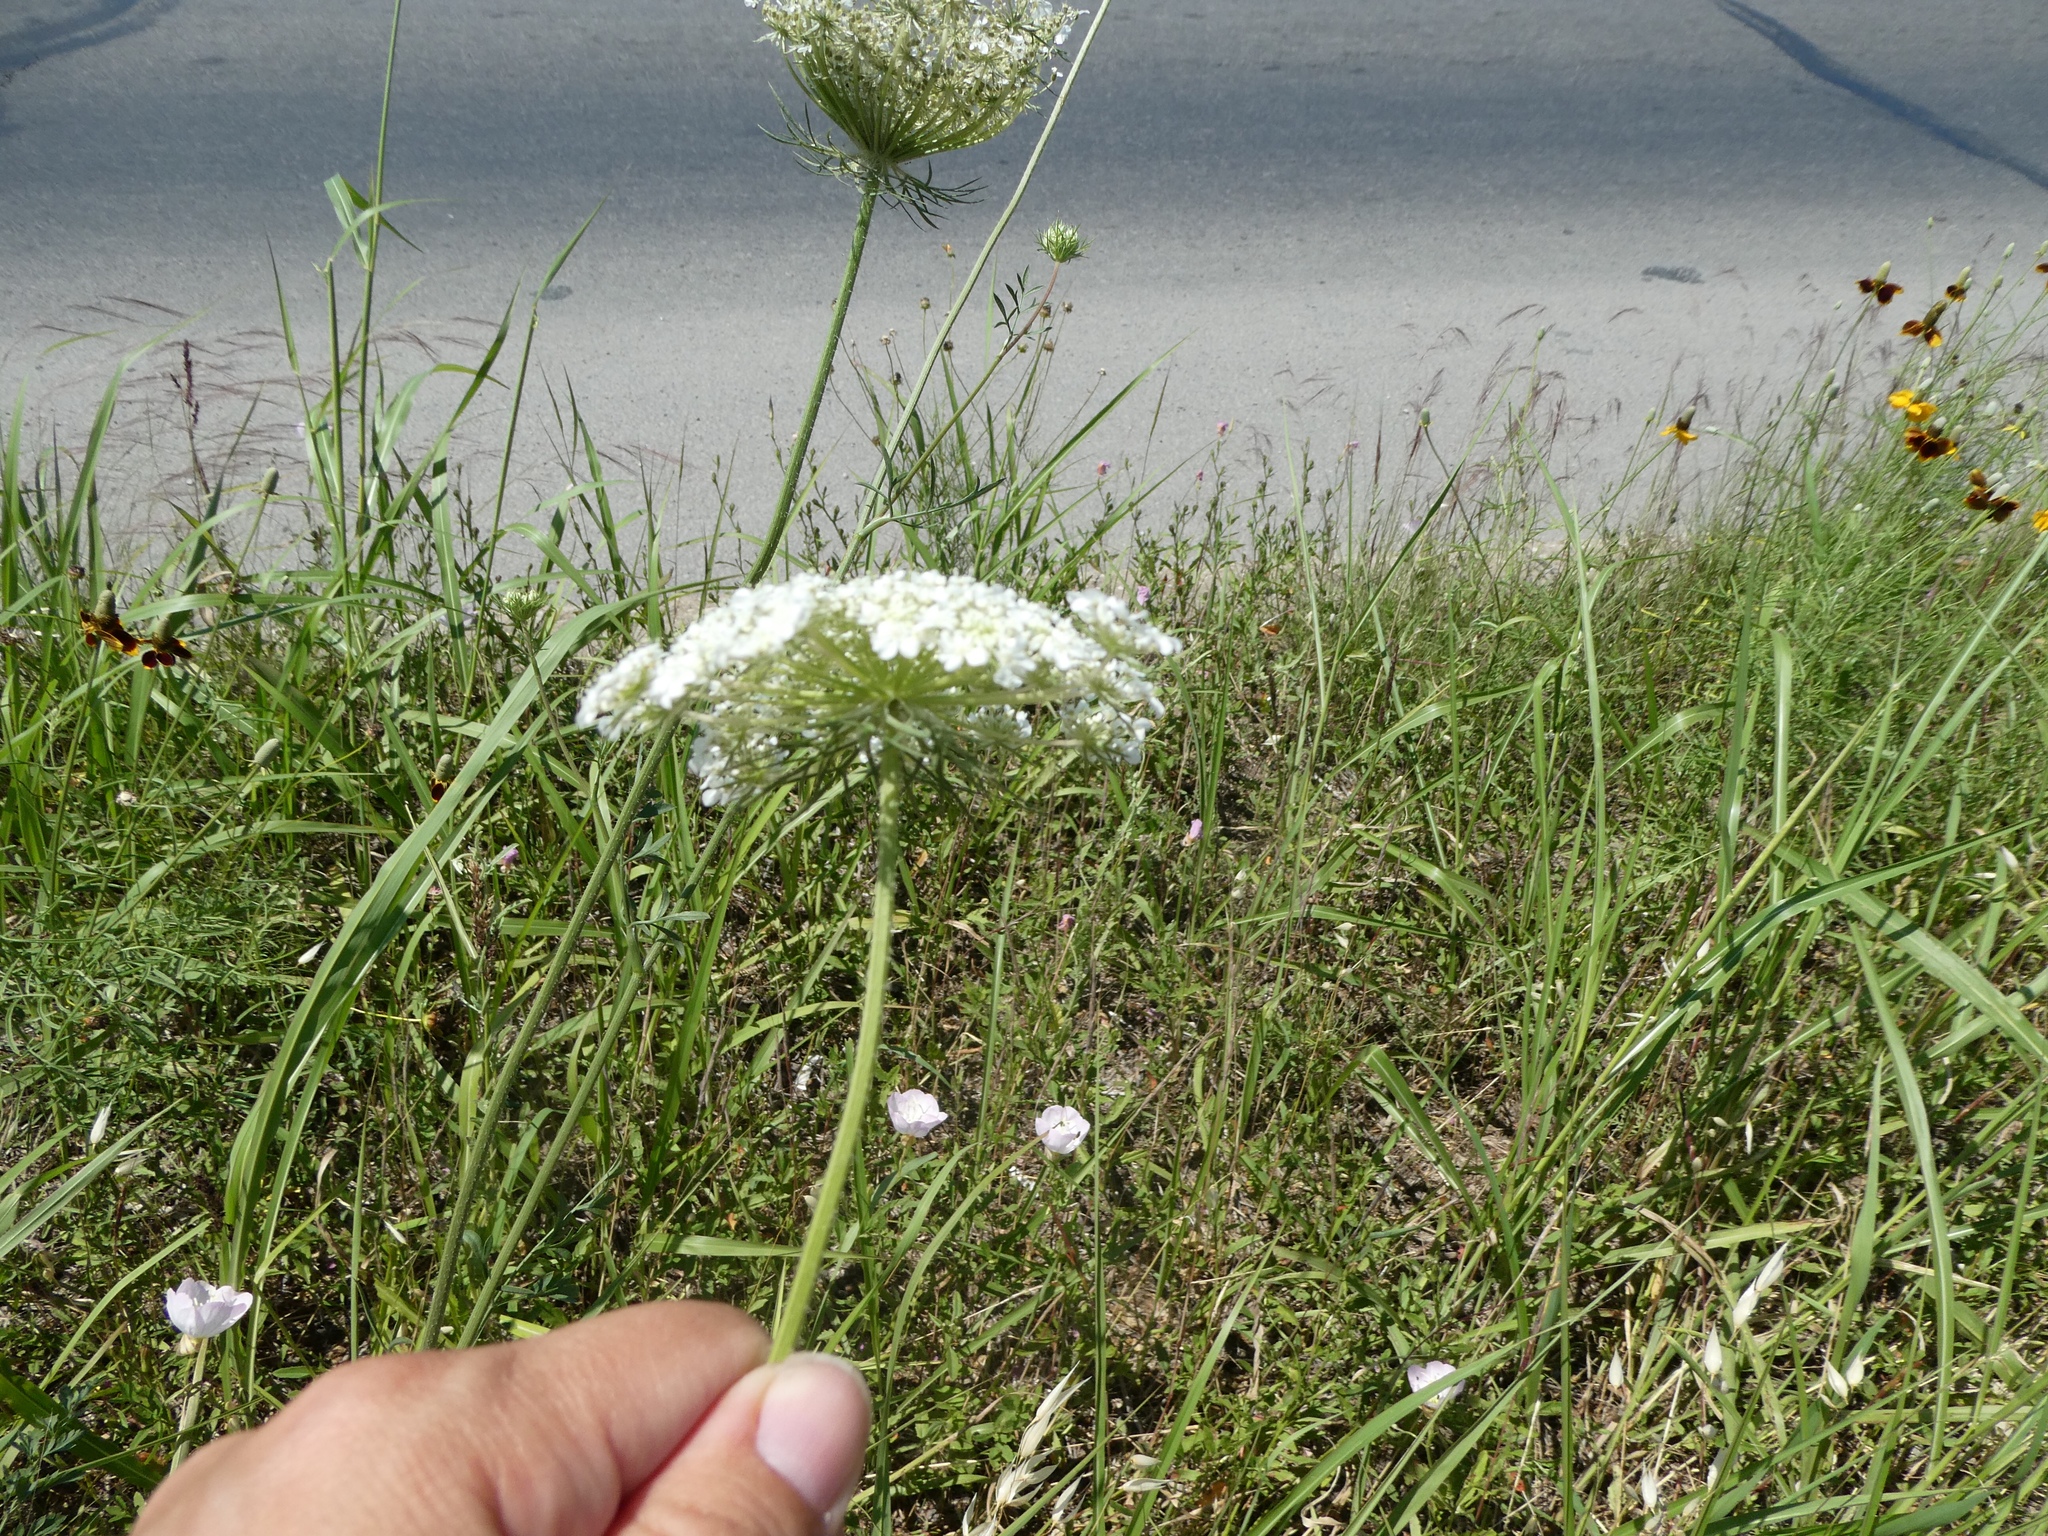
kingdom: Plantae
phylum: Tracheophyta
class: Magnoliopsida
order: Apiales
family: Apiaceae
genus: Daucus
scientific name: Daucus carota
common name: Wild carrot
